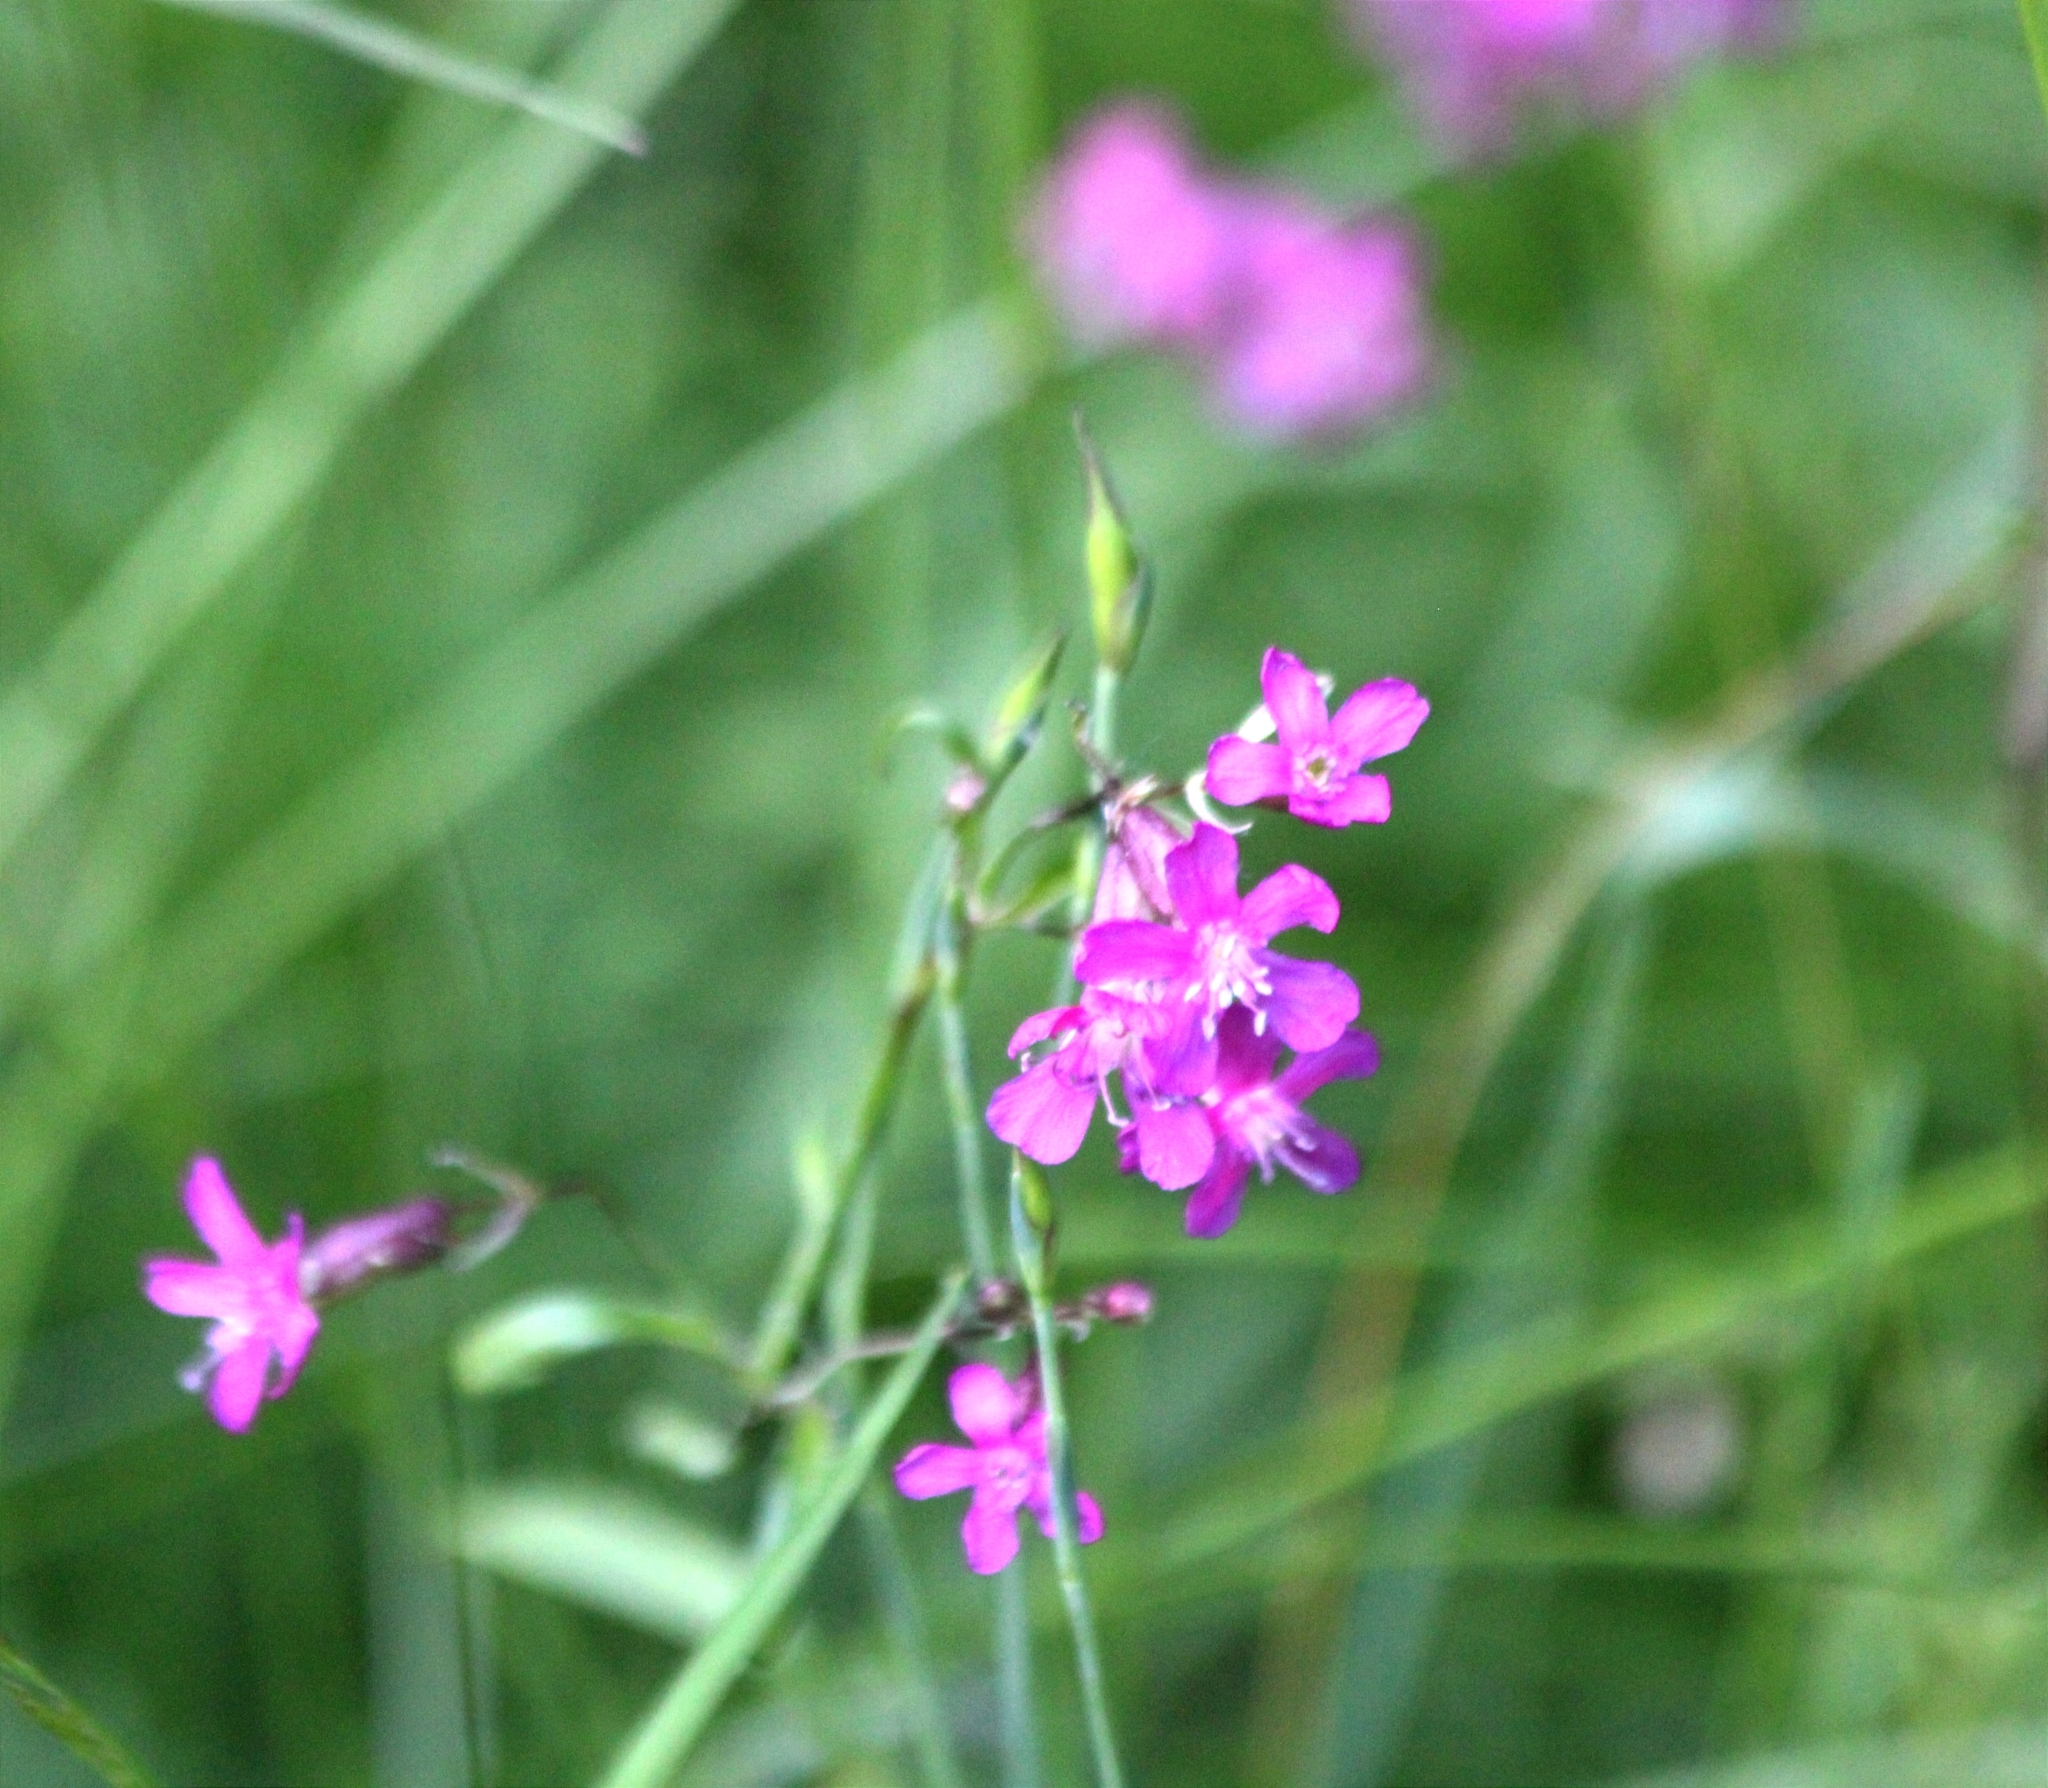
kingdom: Plantae
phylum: Tracheophyta
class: Magnoliopsida
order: Caryophyllales
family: Caryophyllaceae
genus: Viscaria
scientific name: Viscaria vulgaris
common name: Clammy campion
